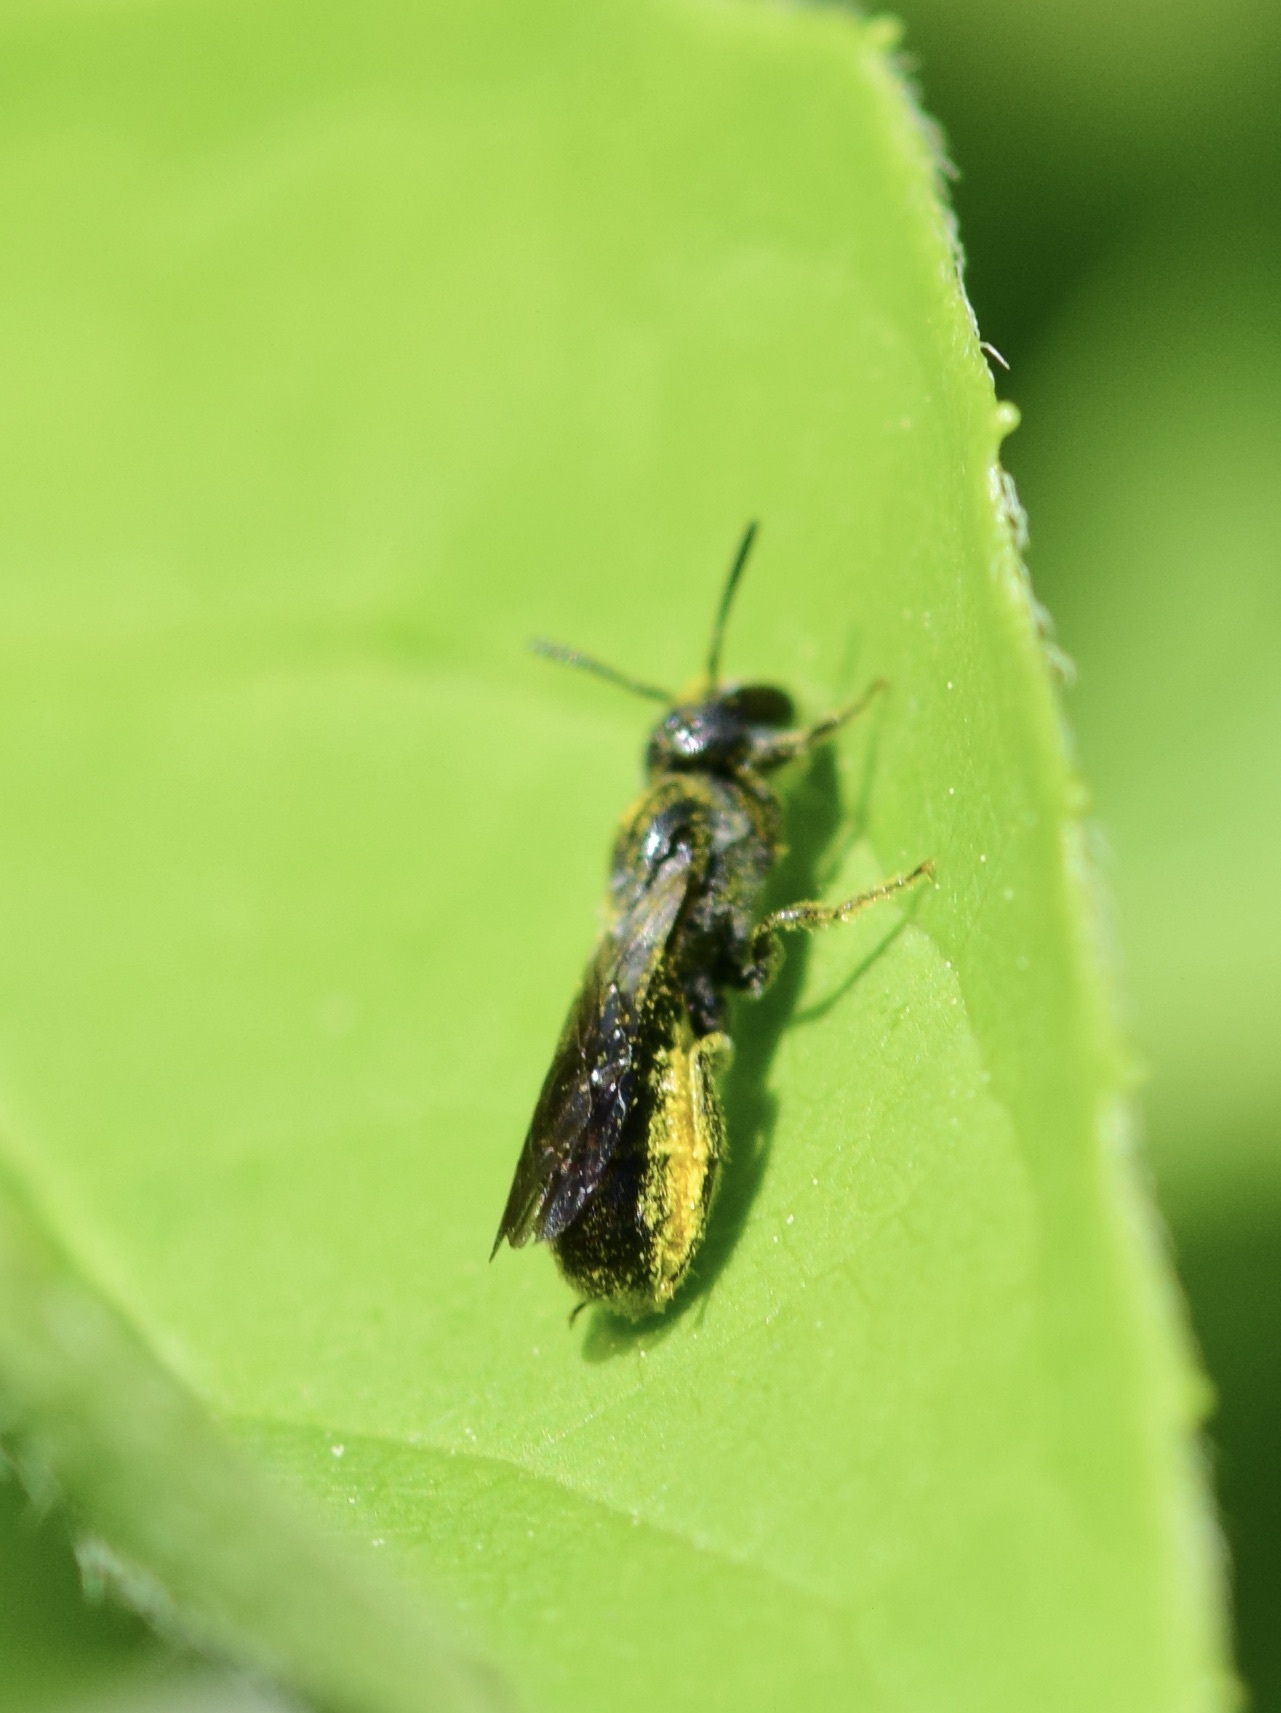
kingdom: Animalia
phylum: Arthropoda
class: Insecta
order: Hymenoptera
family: Megachilidae
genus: Chelostoma
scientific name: Chelostoma philadelphi
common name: Mock-orange scissor bee
